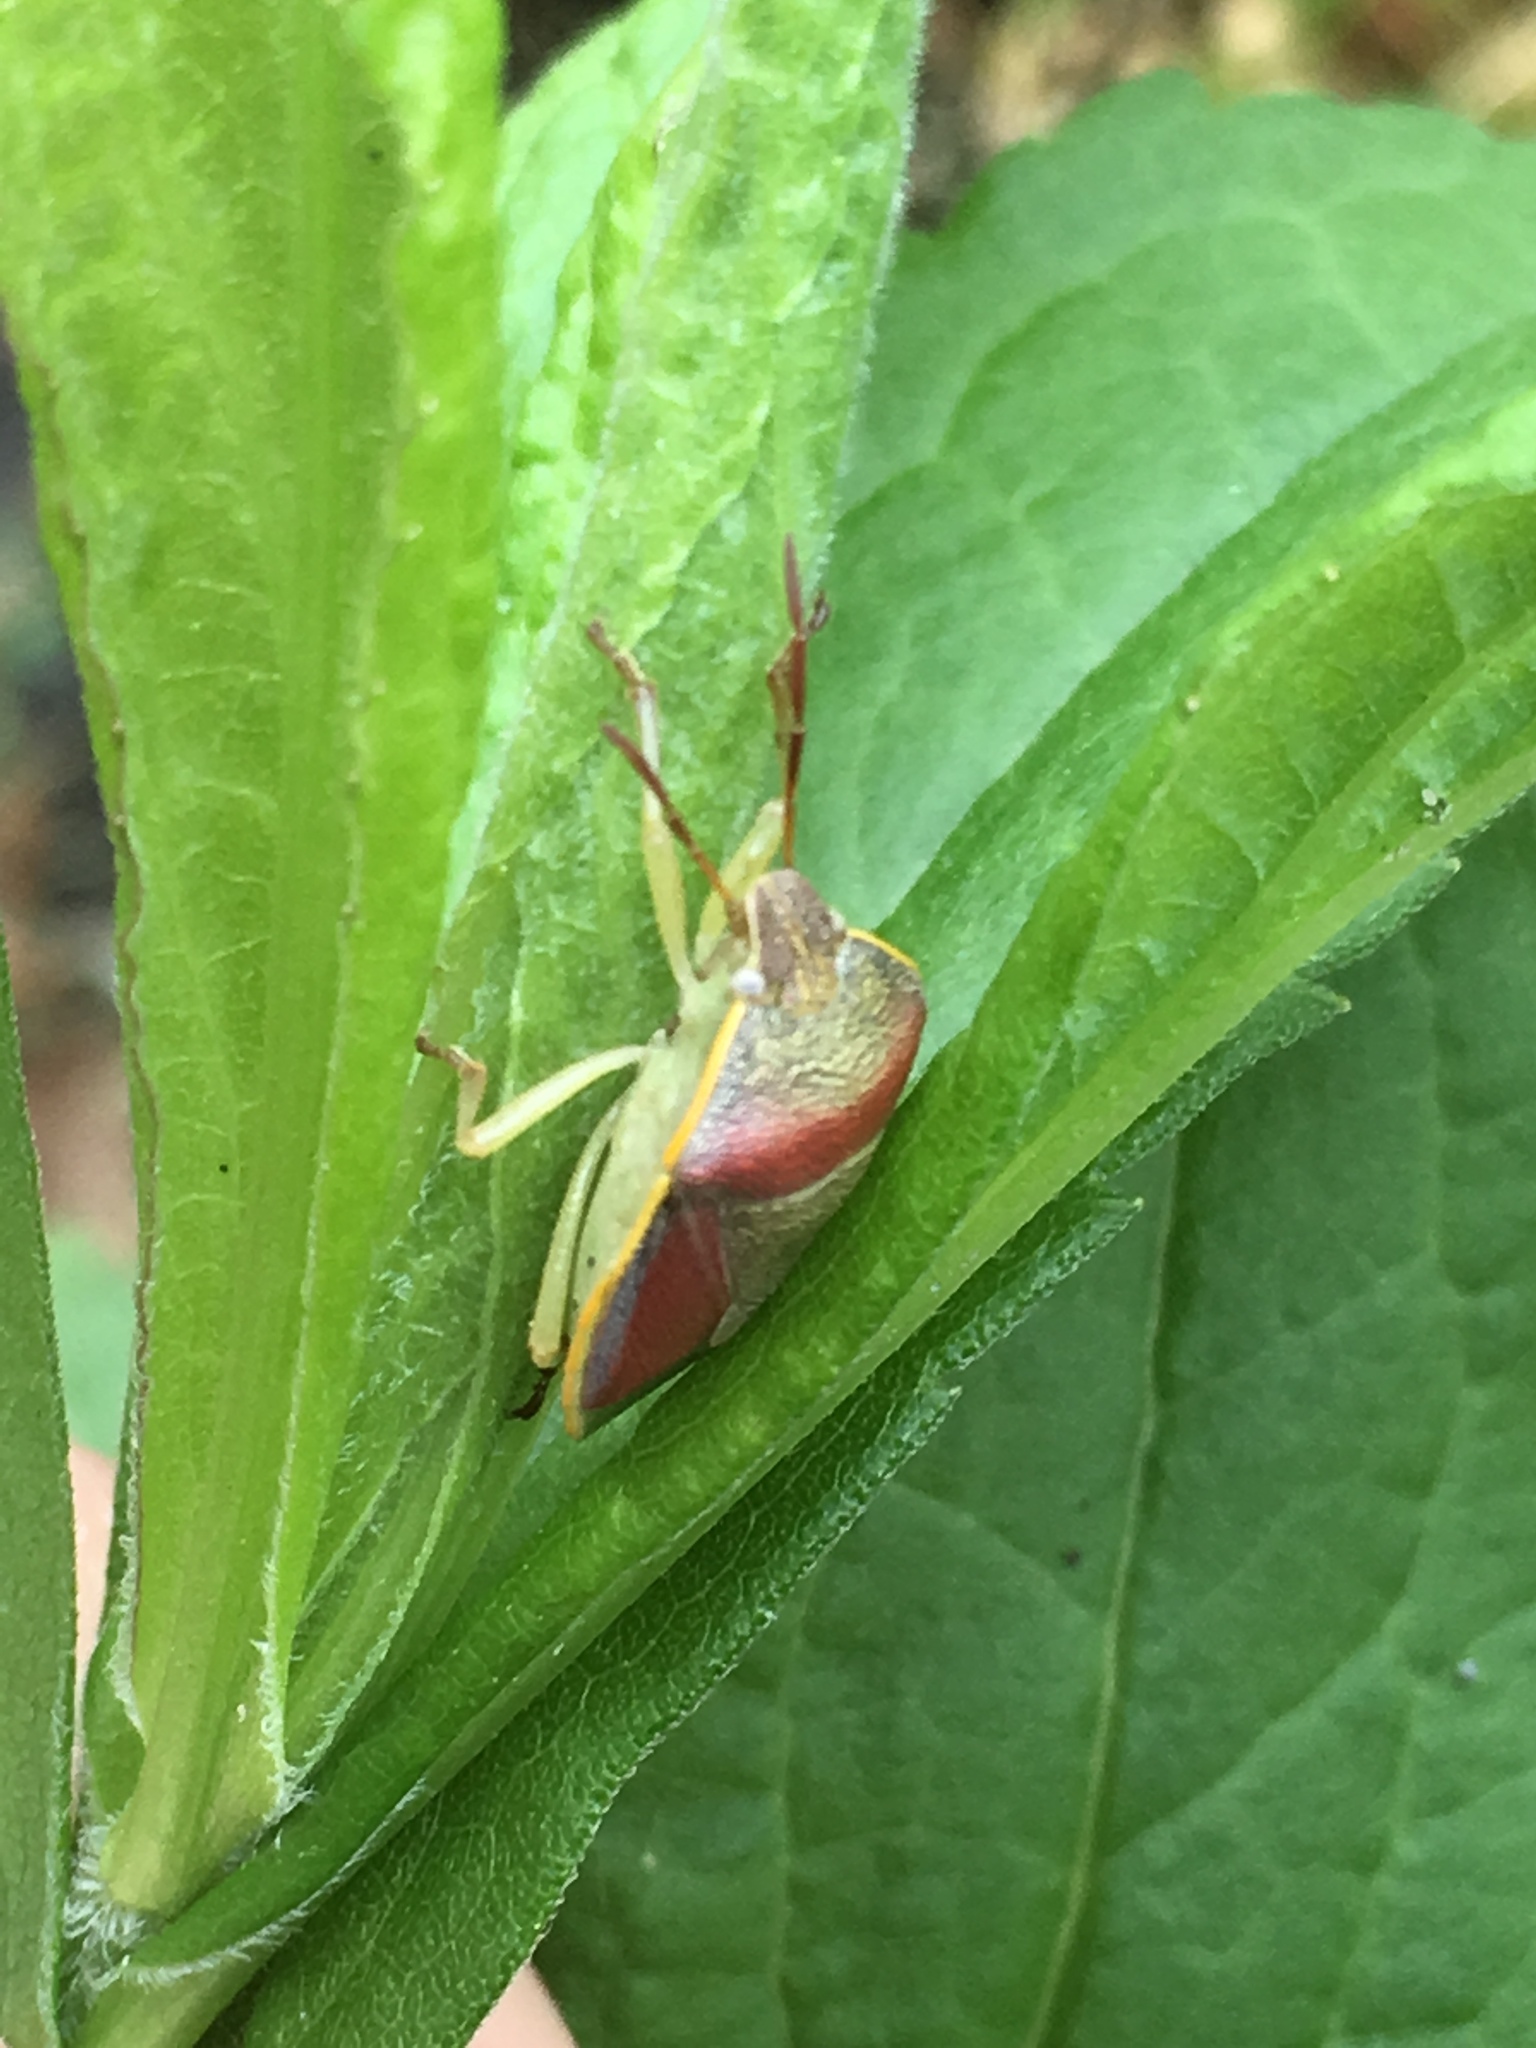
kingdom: Animalia
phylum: Arthropoda
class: Insecta
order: Hemiptera
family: Pentatomidae
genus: Piezodorus
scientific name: Piezodorus lituratus
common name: Stink bug
